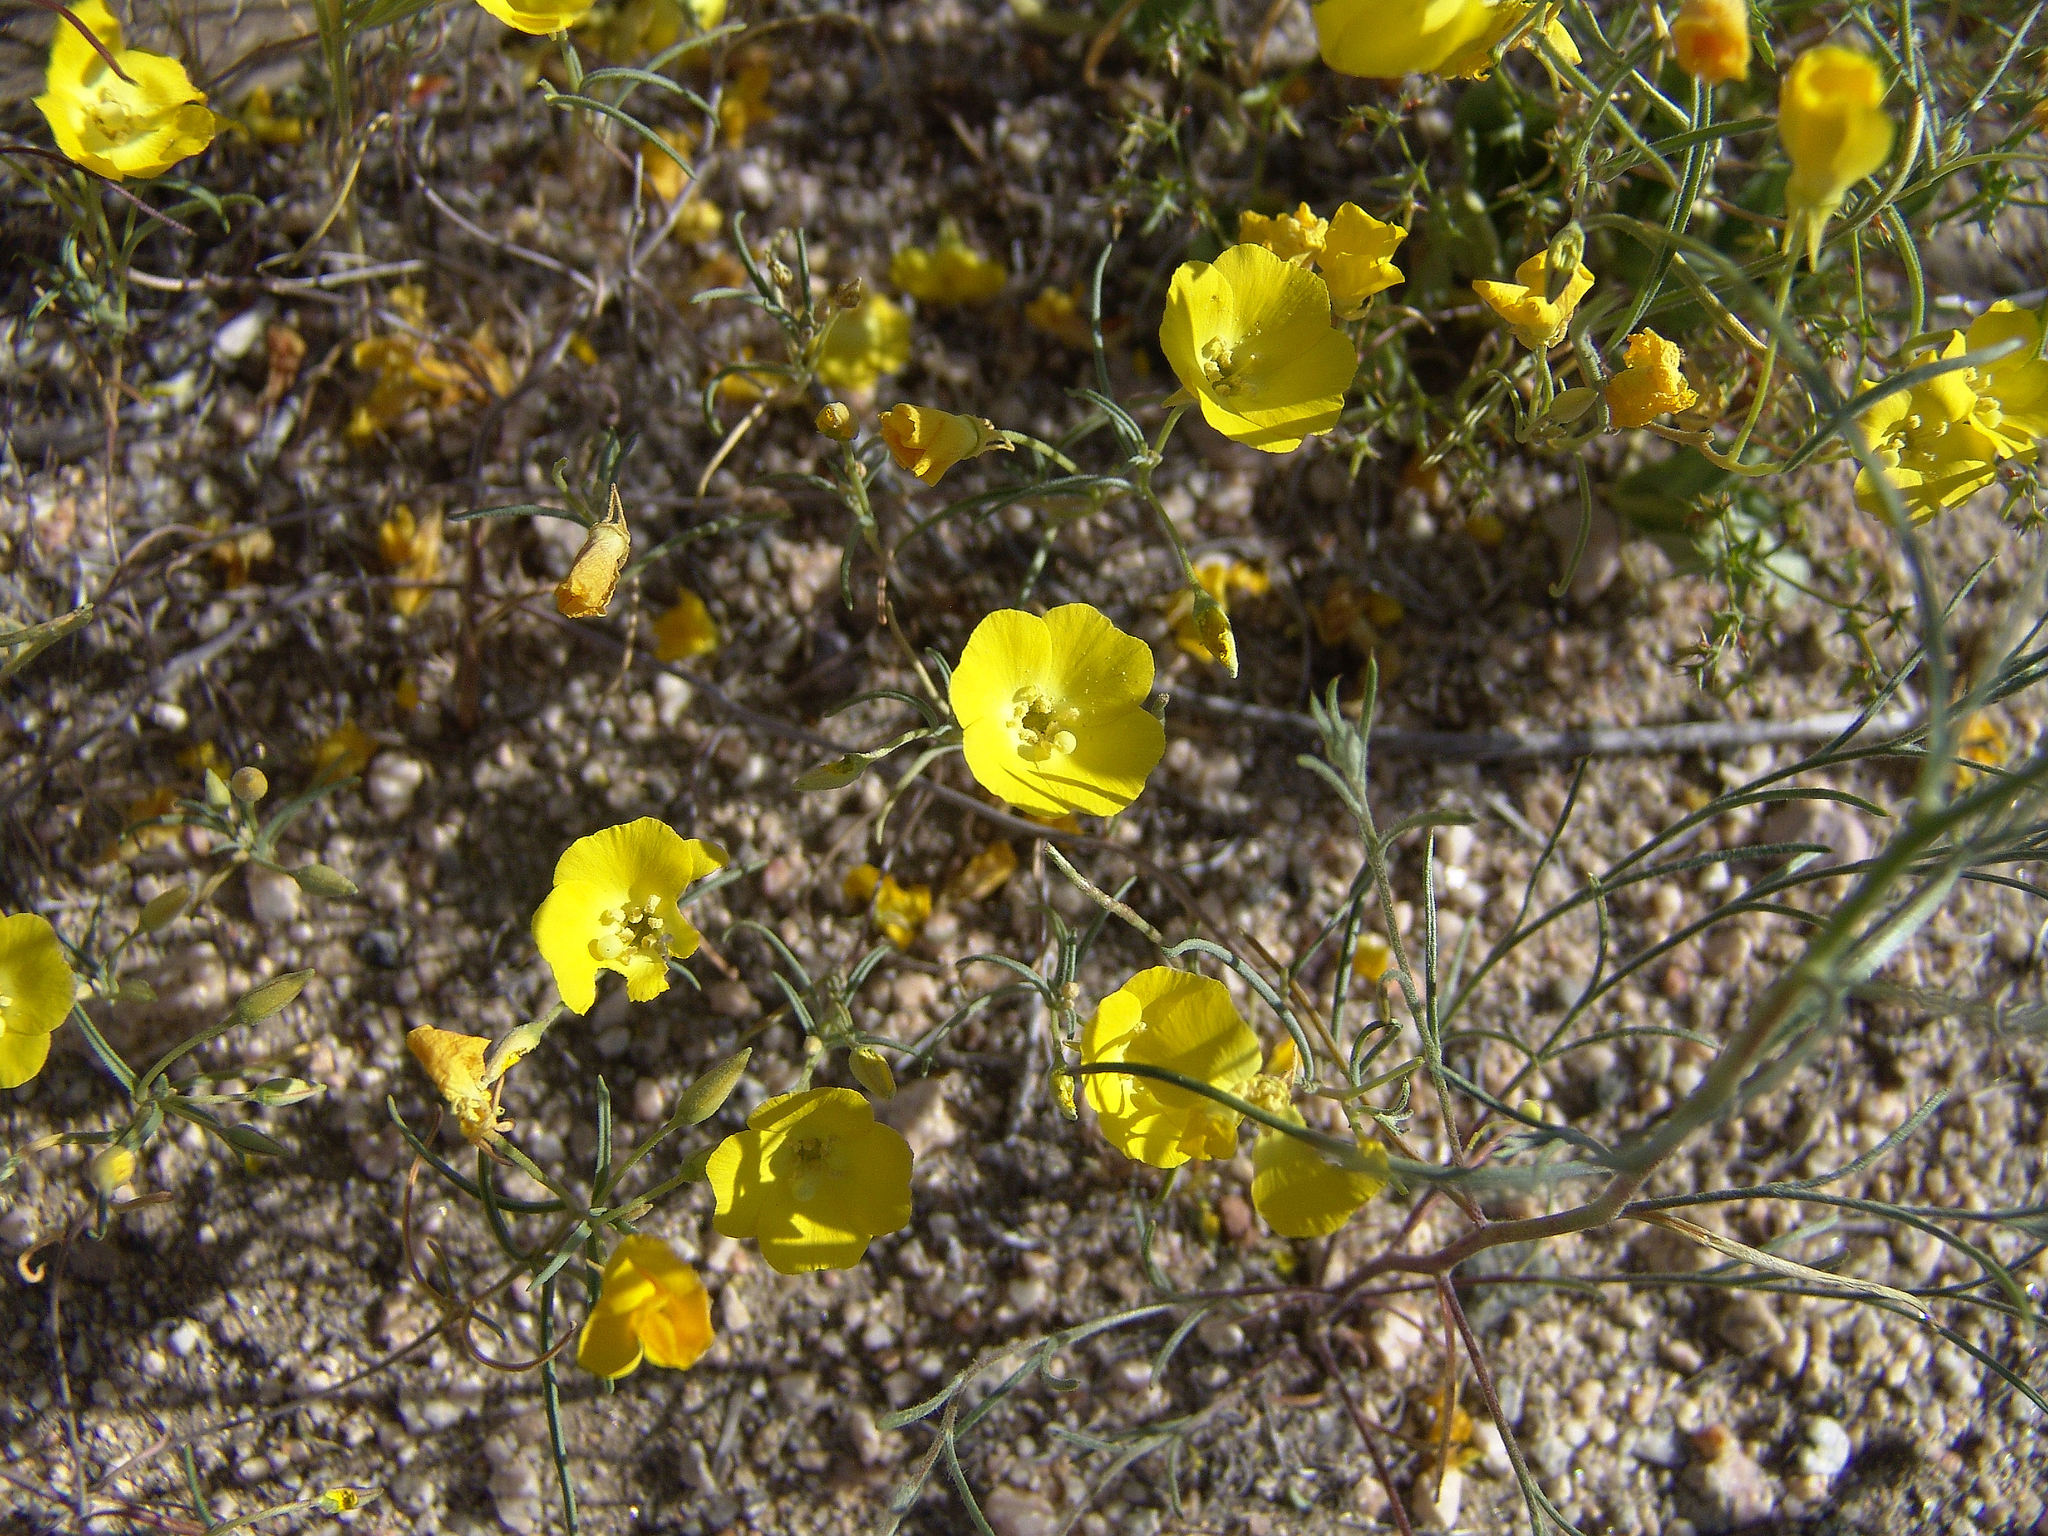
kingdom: Plantae
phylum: Tracheophyta
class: Magnoliopsida
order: Myrtales
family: Onagraceae
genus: Camissonia
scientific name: Camissonia campestris
